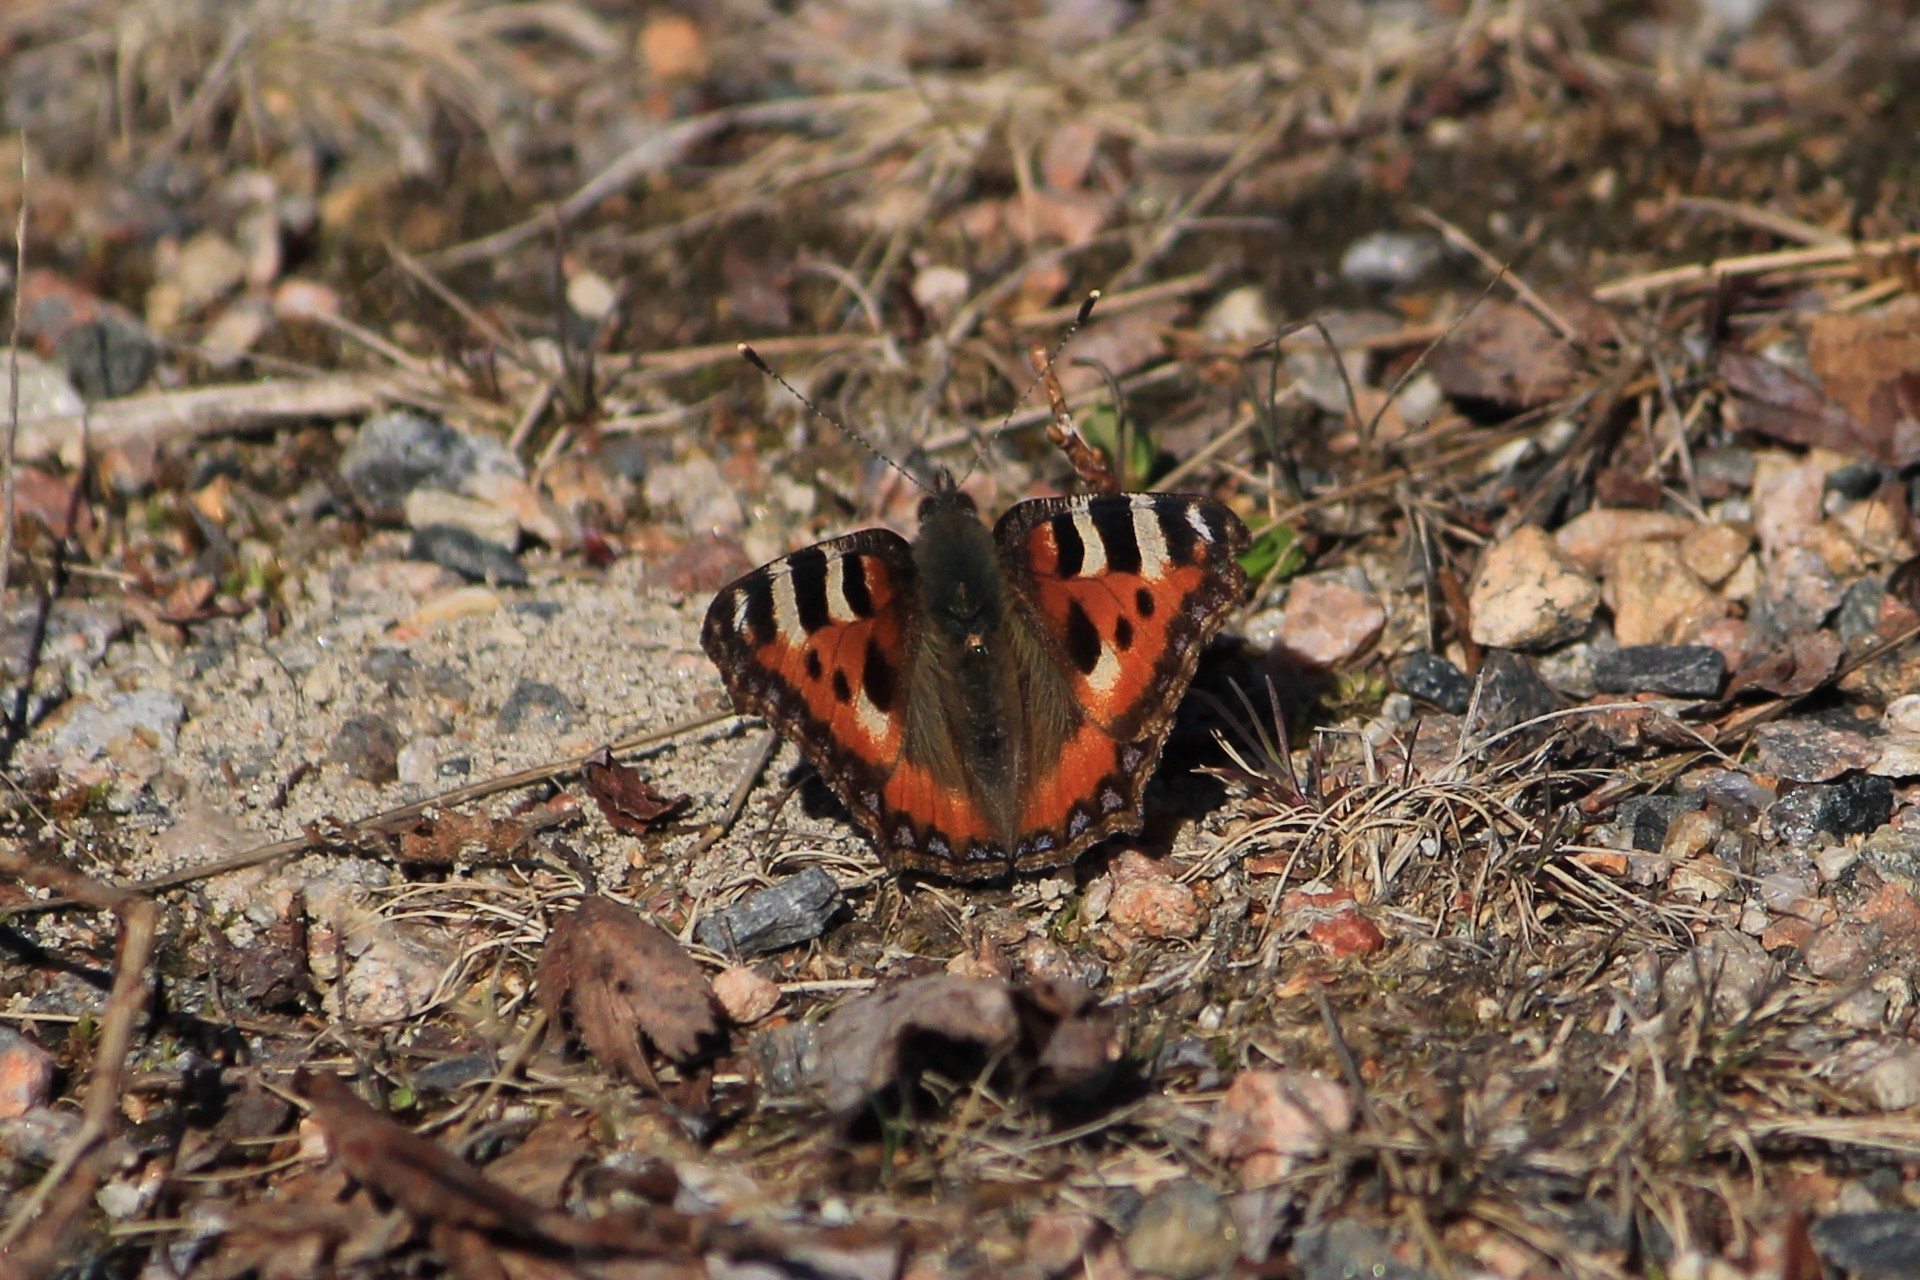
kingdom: Animalia
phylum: Arthropoda
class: Insecta
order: Lepidoptera
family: Nymphalidae
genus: Aglais
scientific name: Aglais urticae
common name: Small tortoiseshell
